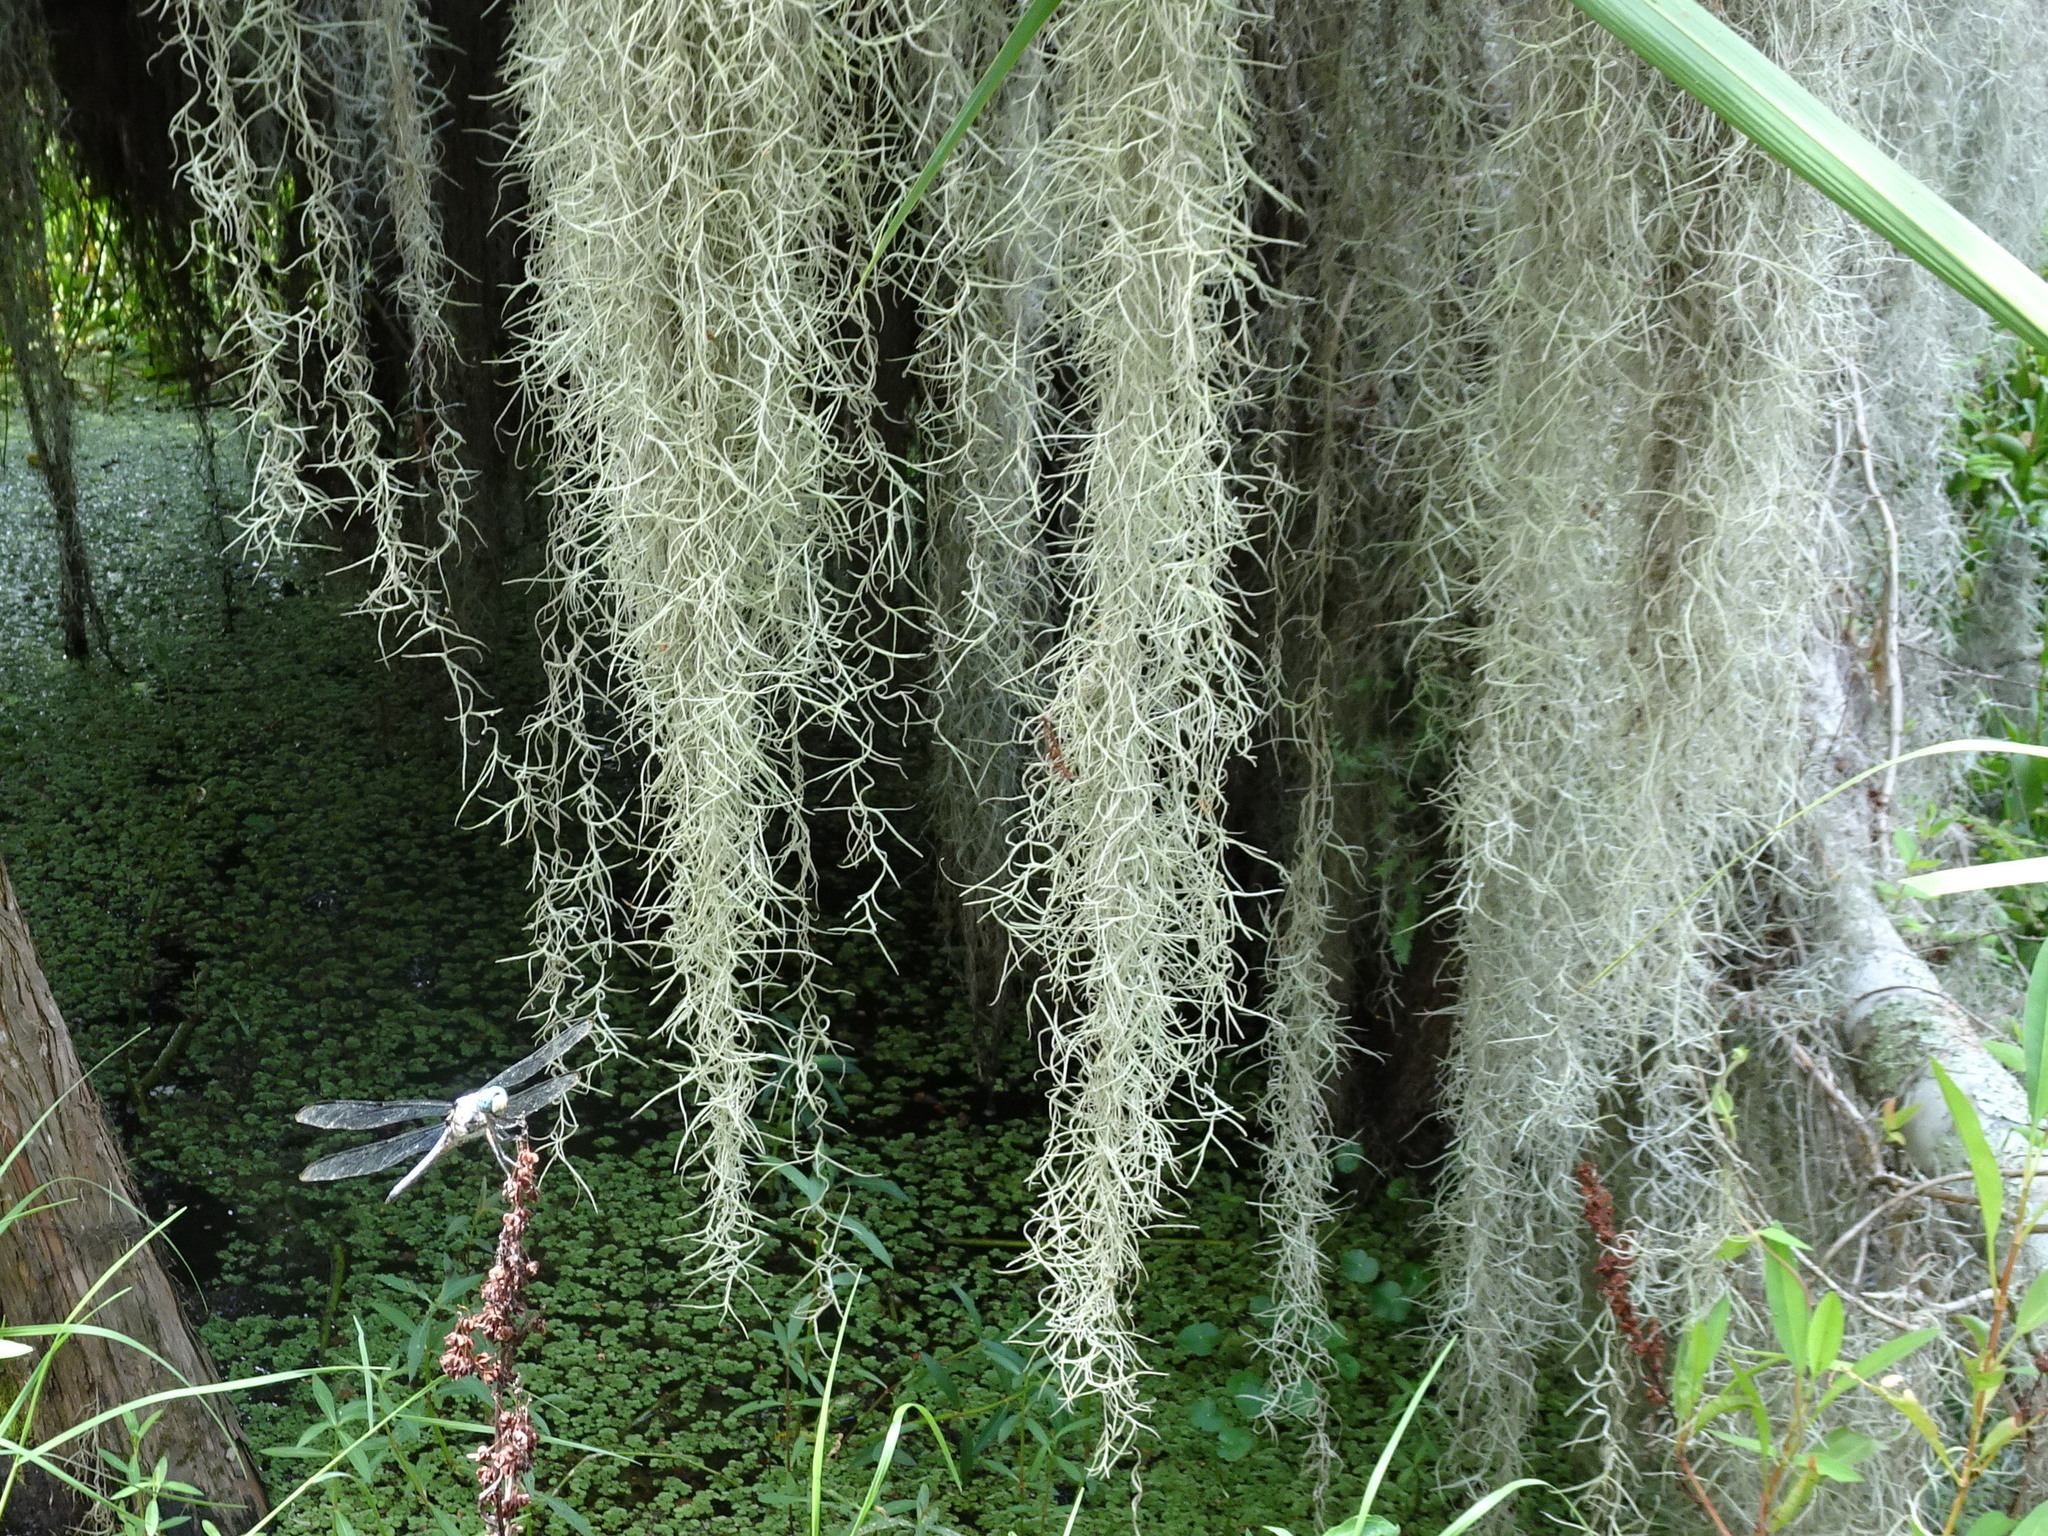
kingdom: Plantae
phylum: Tracheophyta
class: Liliopsida
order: Poales
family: Bromeliaceae
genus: Tillandsia
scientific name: Tillandsia usneoides
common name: Spanish moss
